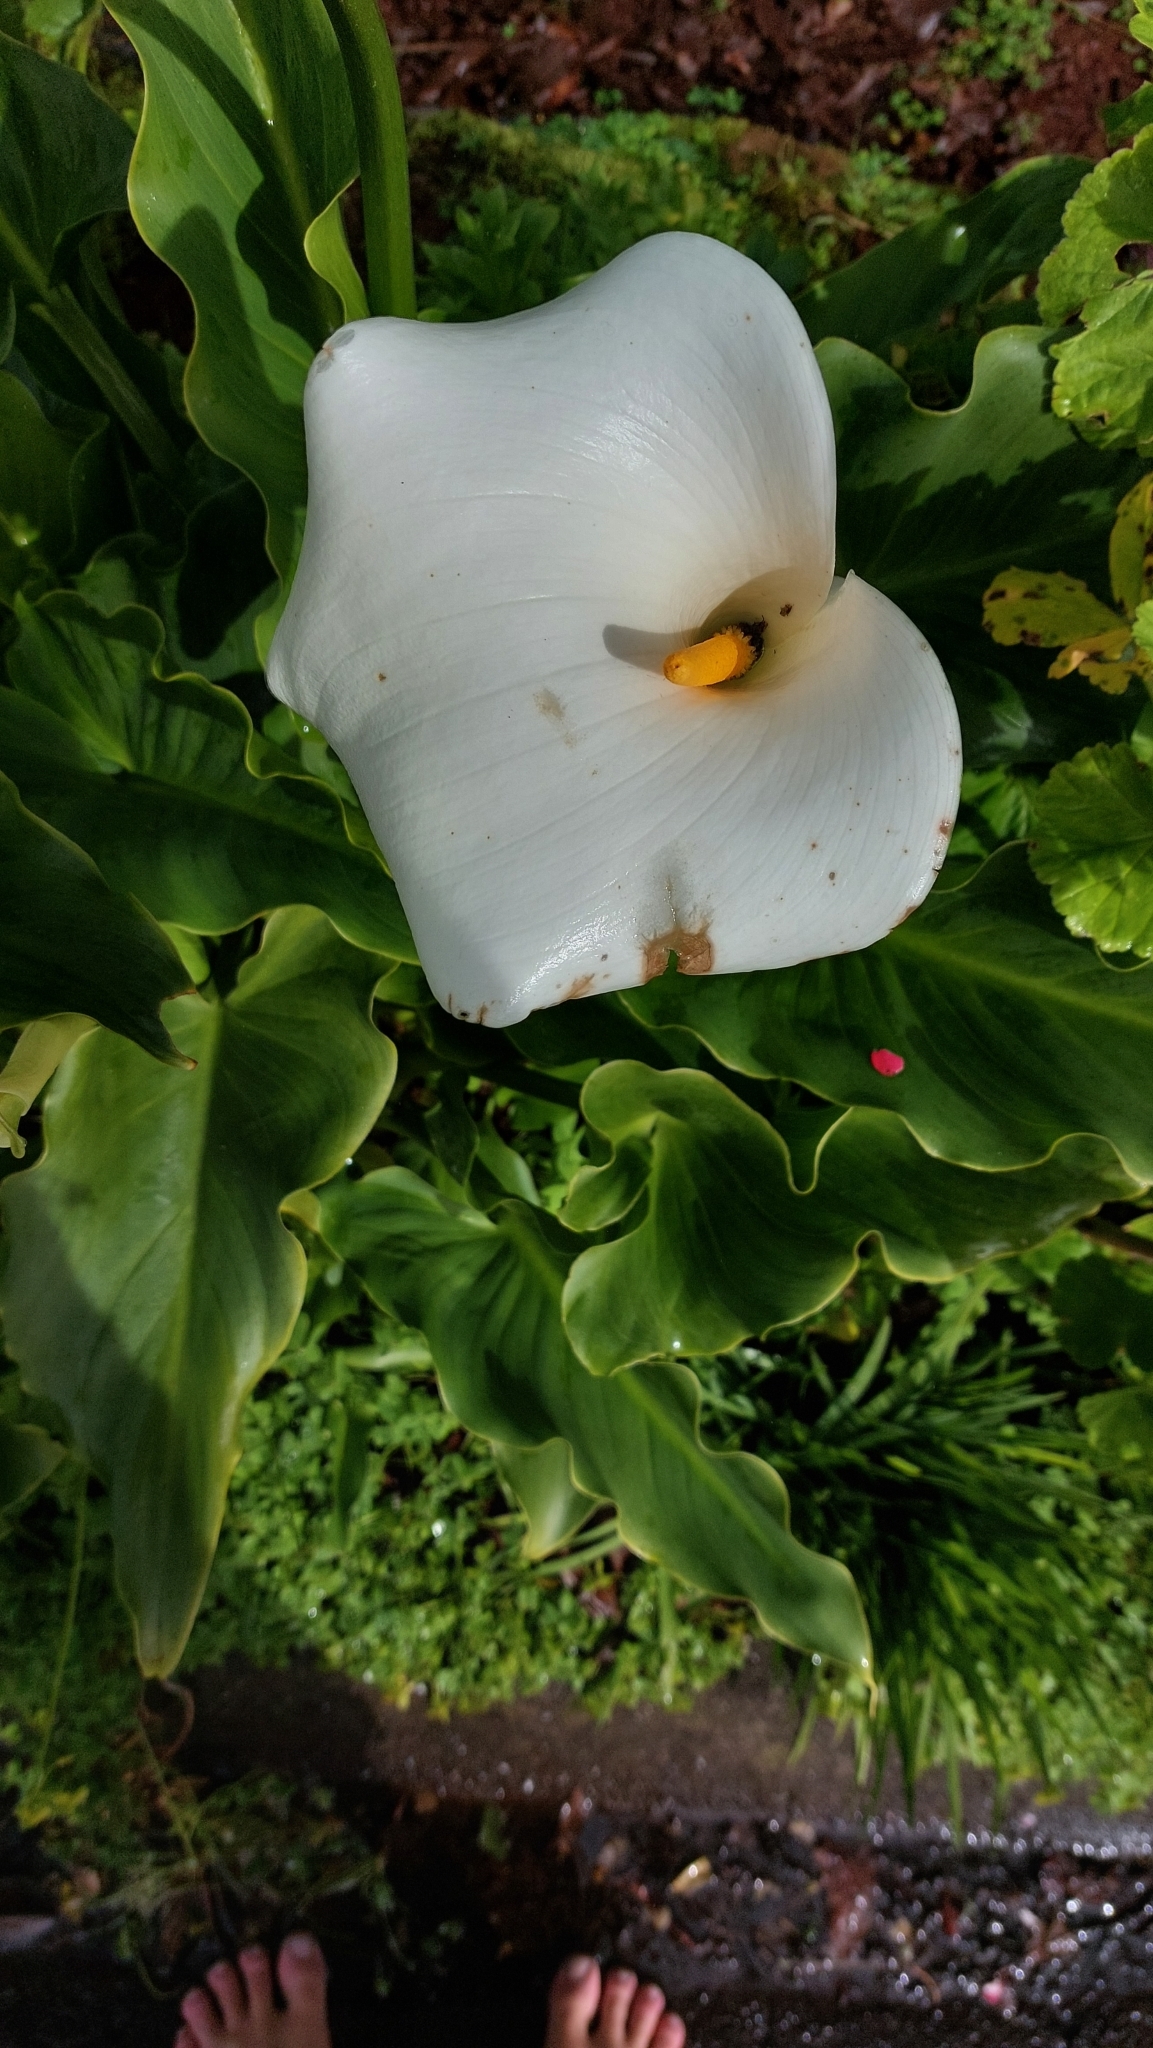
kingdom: Plantae
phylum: Tracheophyta
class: Liliopsida
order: Alismatales
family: Araceae
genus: Zantedeschia
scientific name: Zantedeschia aethiopica
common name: Altar-lily
